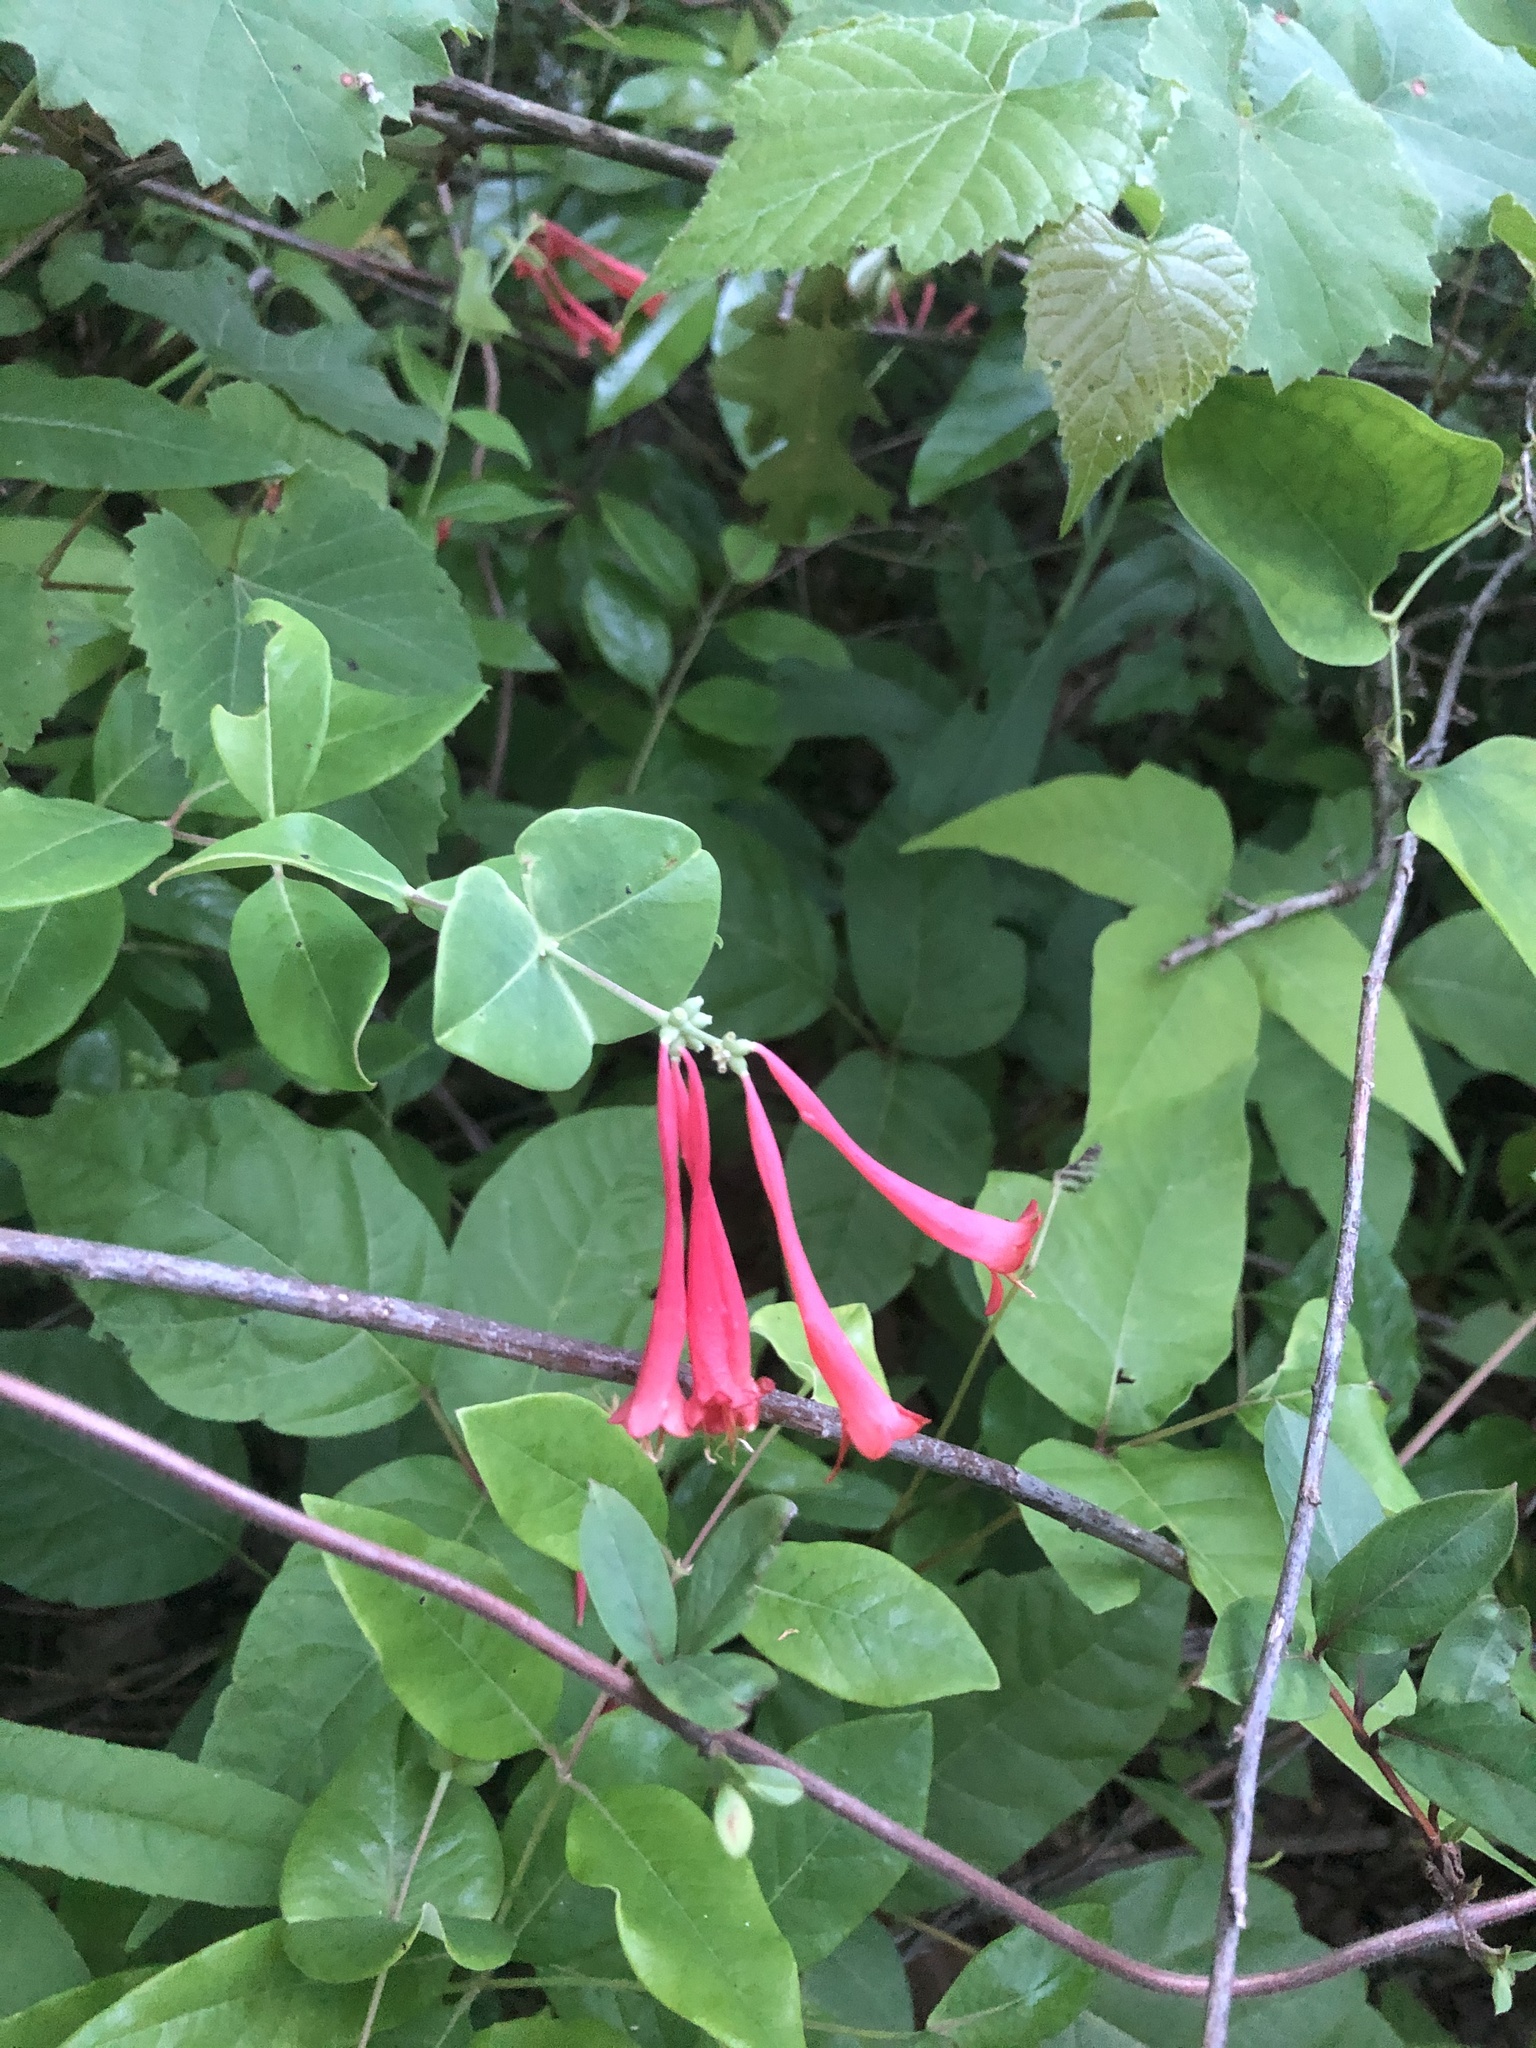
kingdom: Plantae
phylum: Tracheophyta
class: Magnoliopsida
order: Dipsacales
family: Caprifoliaceae
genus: Lonicera
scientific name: Lonicera sempervirens
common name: Coral honeysuckle
